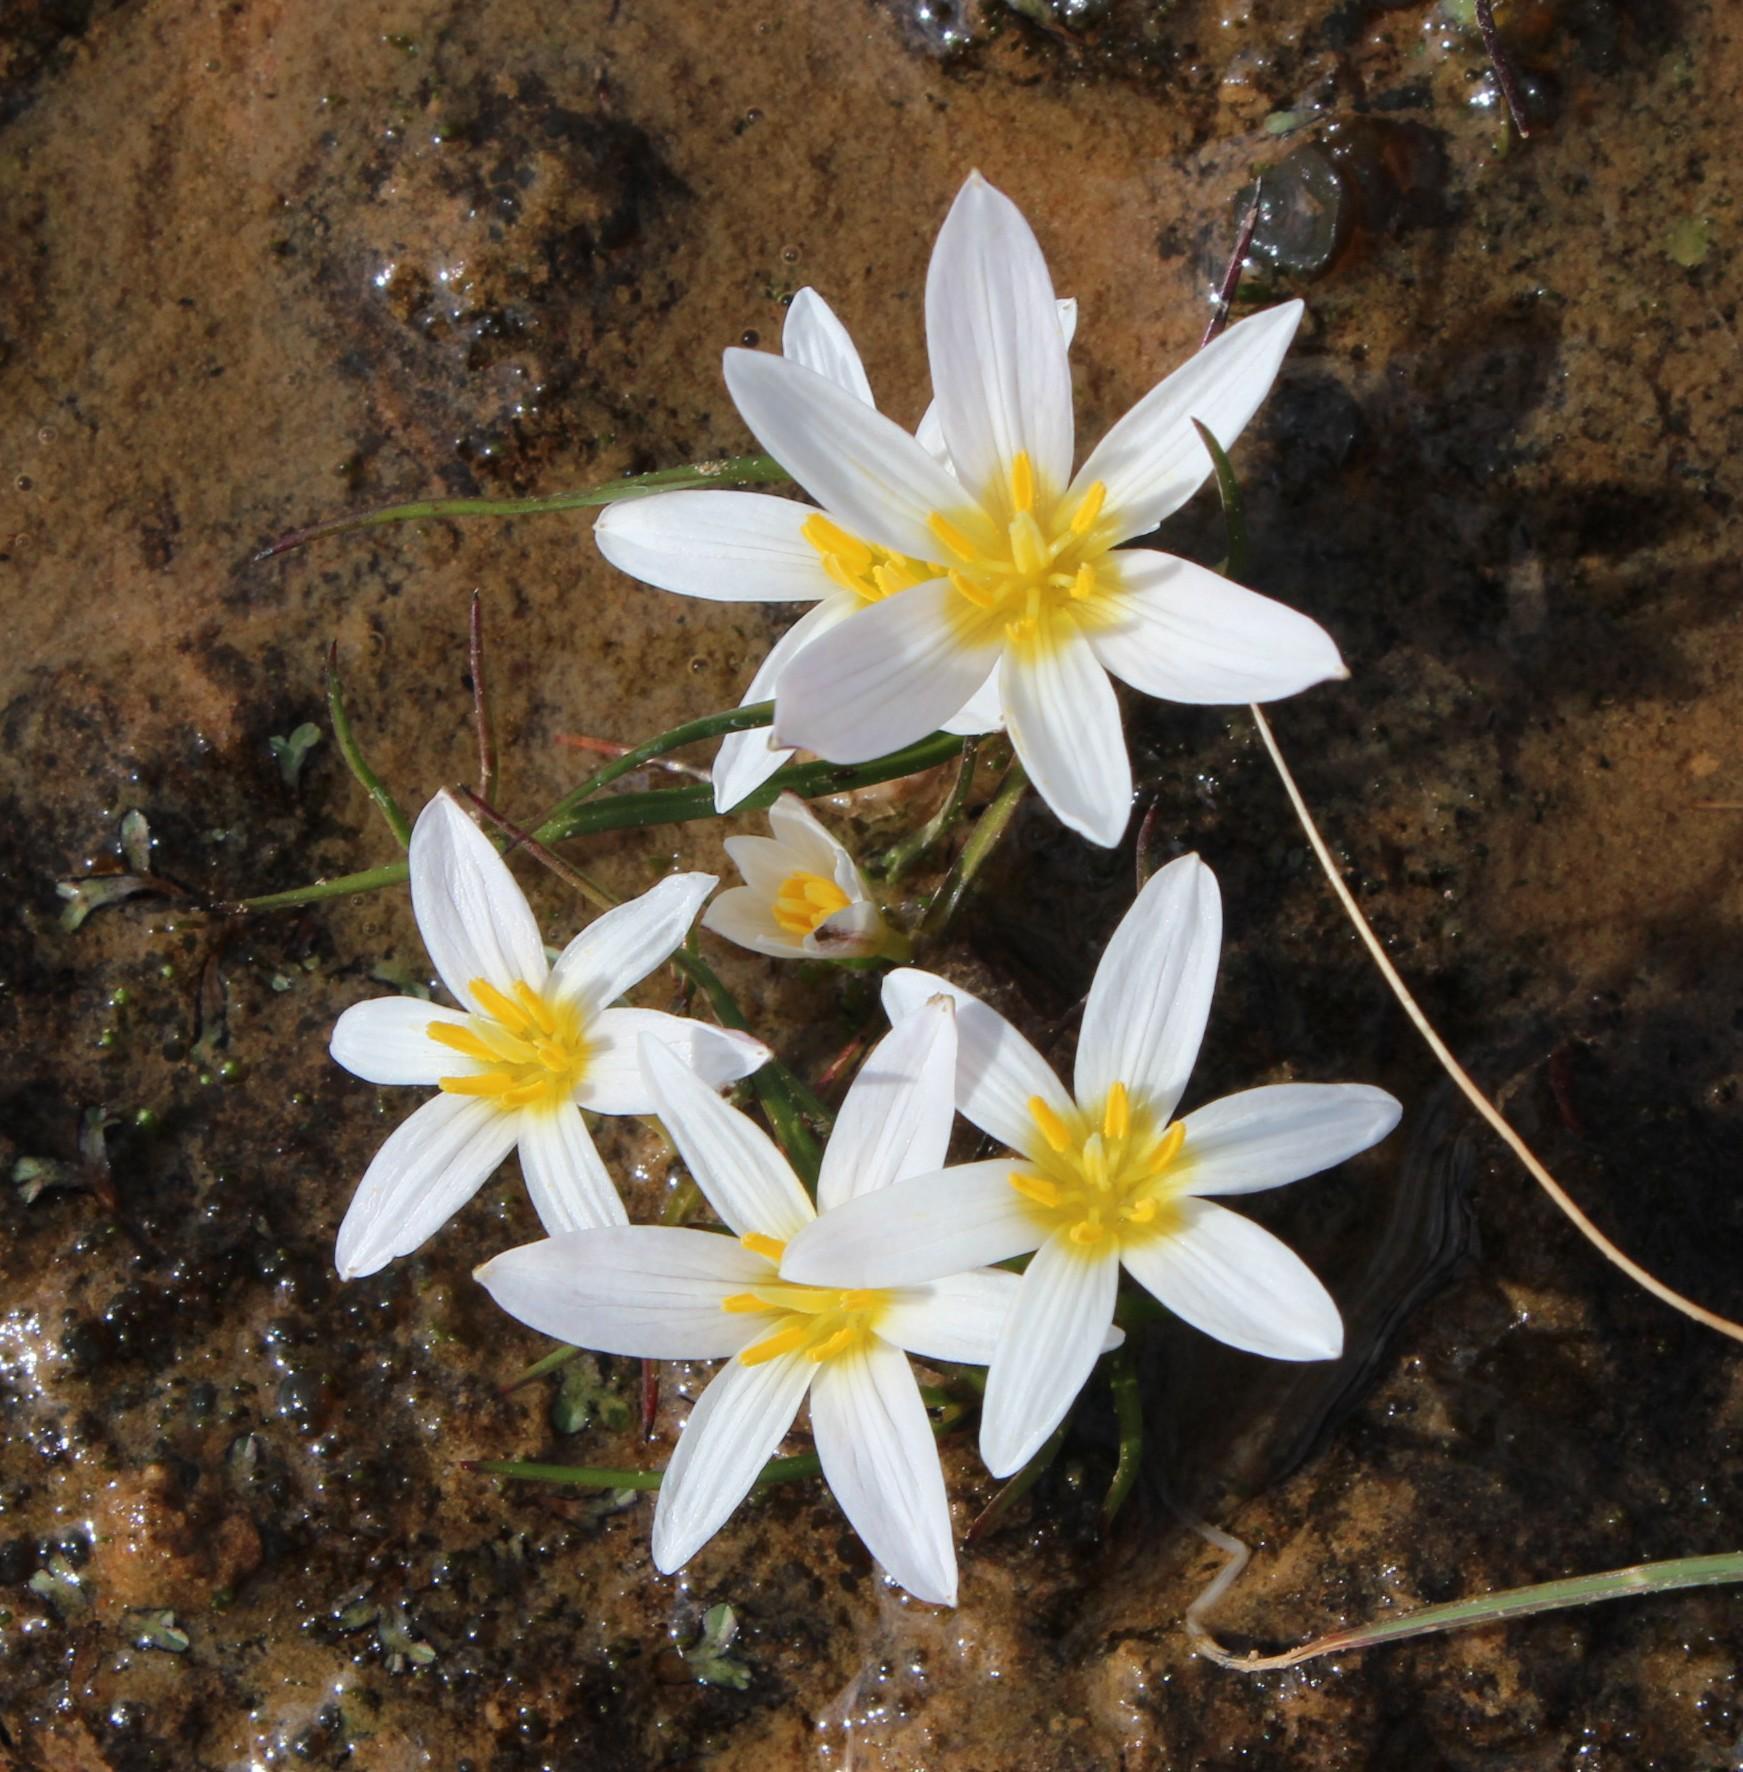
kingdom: Plantae
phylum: Tracheophyta
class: Liliopsida
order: Asparagales
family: Hypoxidaceae
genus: Pauridia
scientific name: Pauridia alticola
